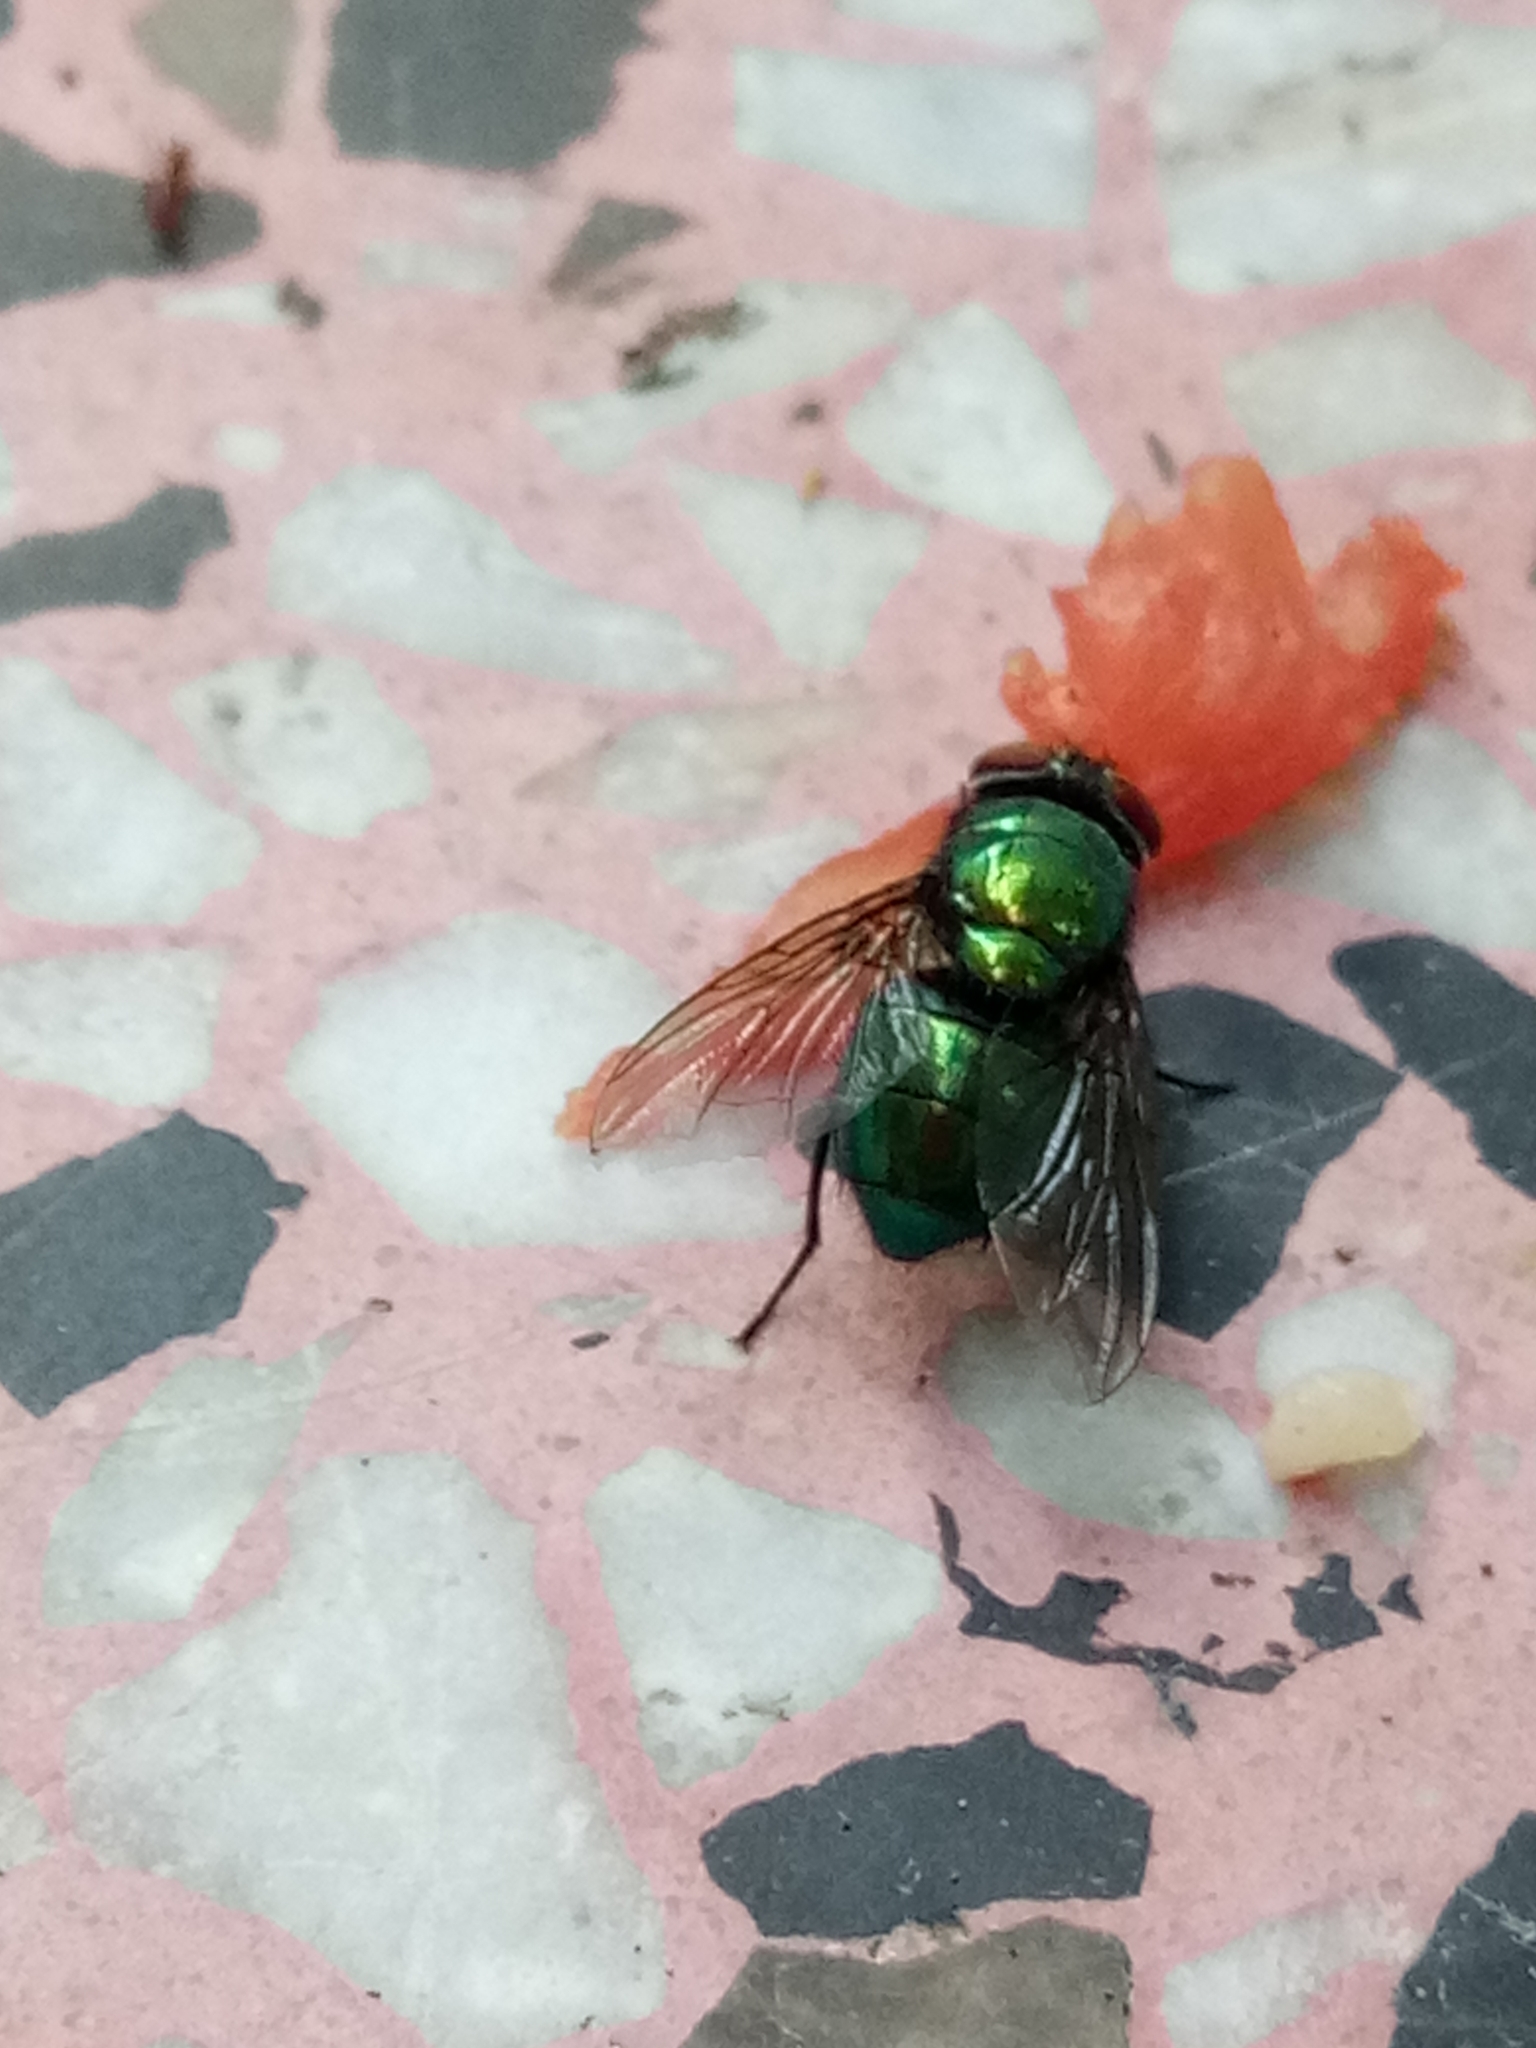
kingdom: Animalia
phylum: Arthropoda
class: Insecta
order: Diptera
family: Calliphoridae
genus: Lucilia
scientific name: Lucilia sericata
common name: Blow fly
